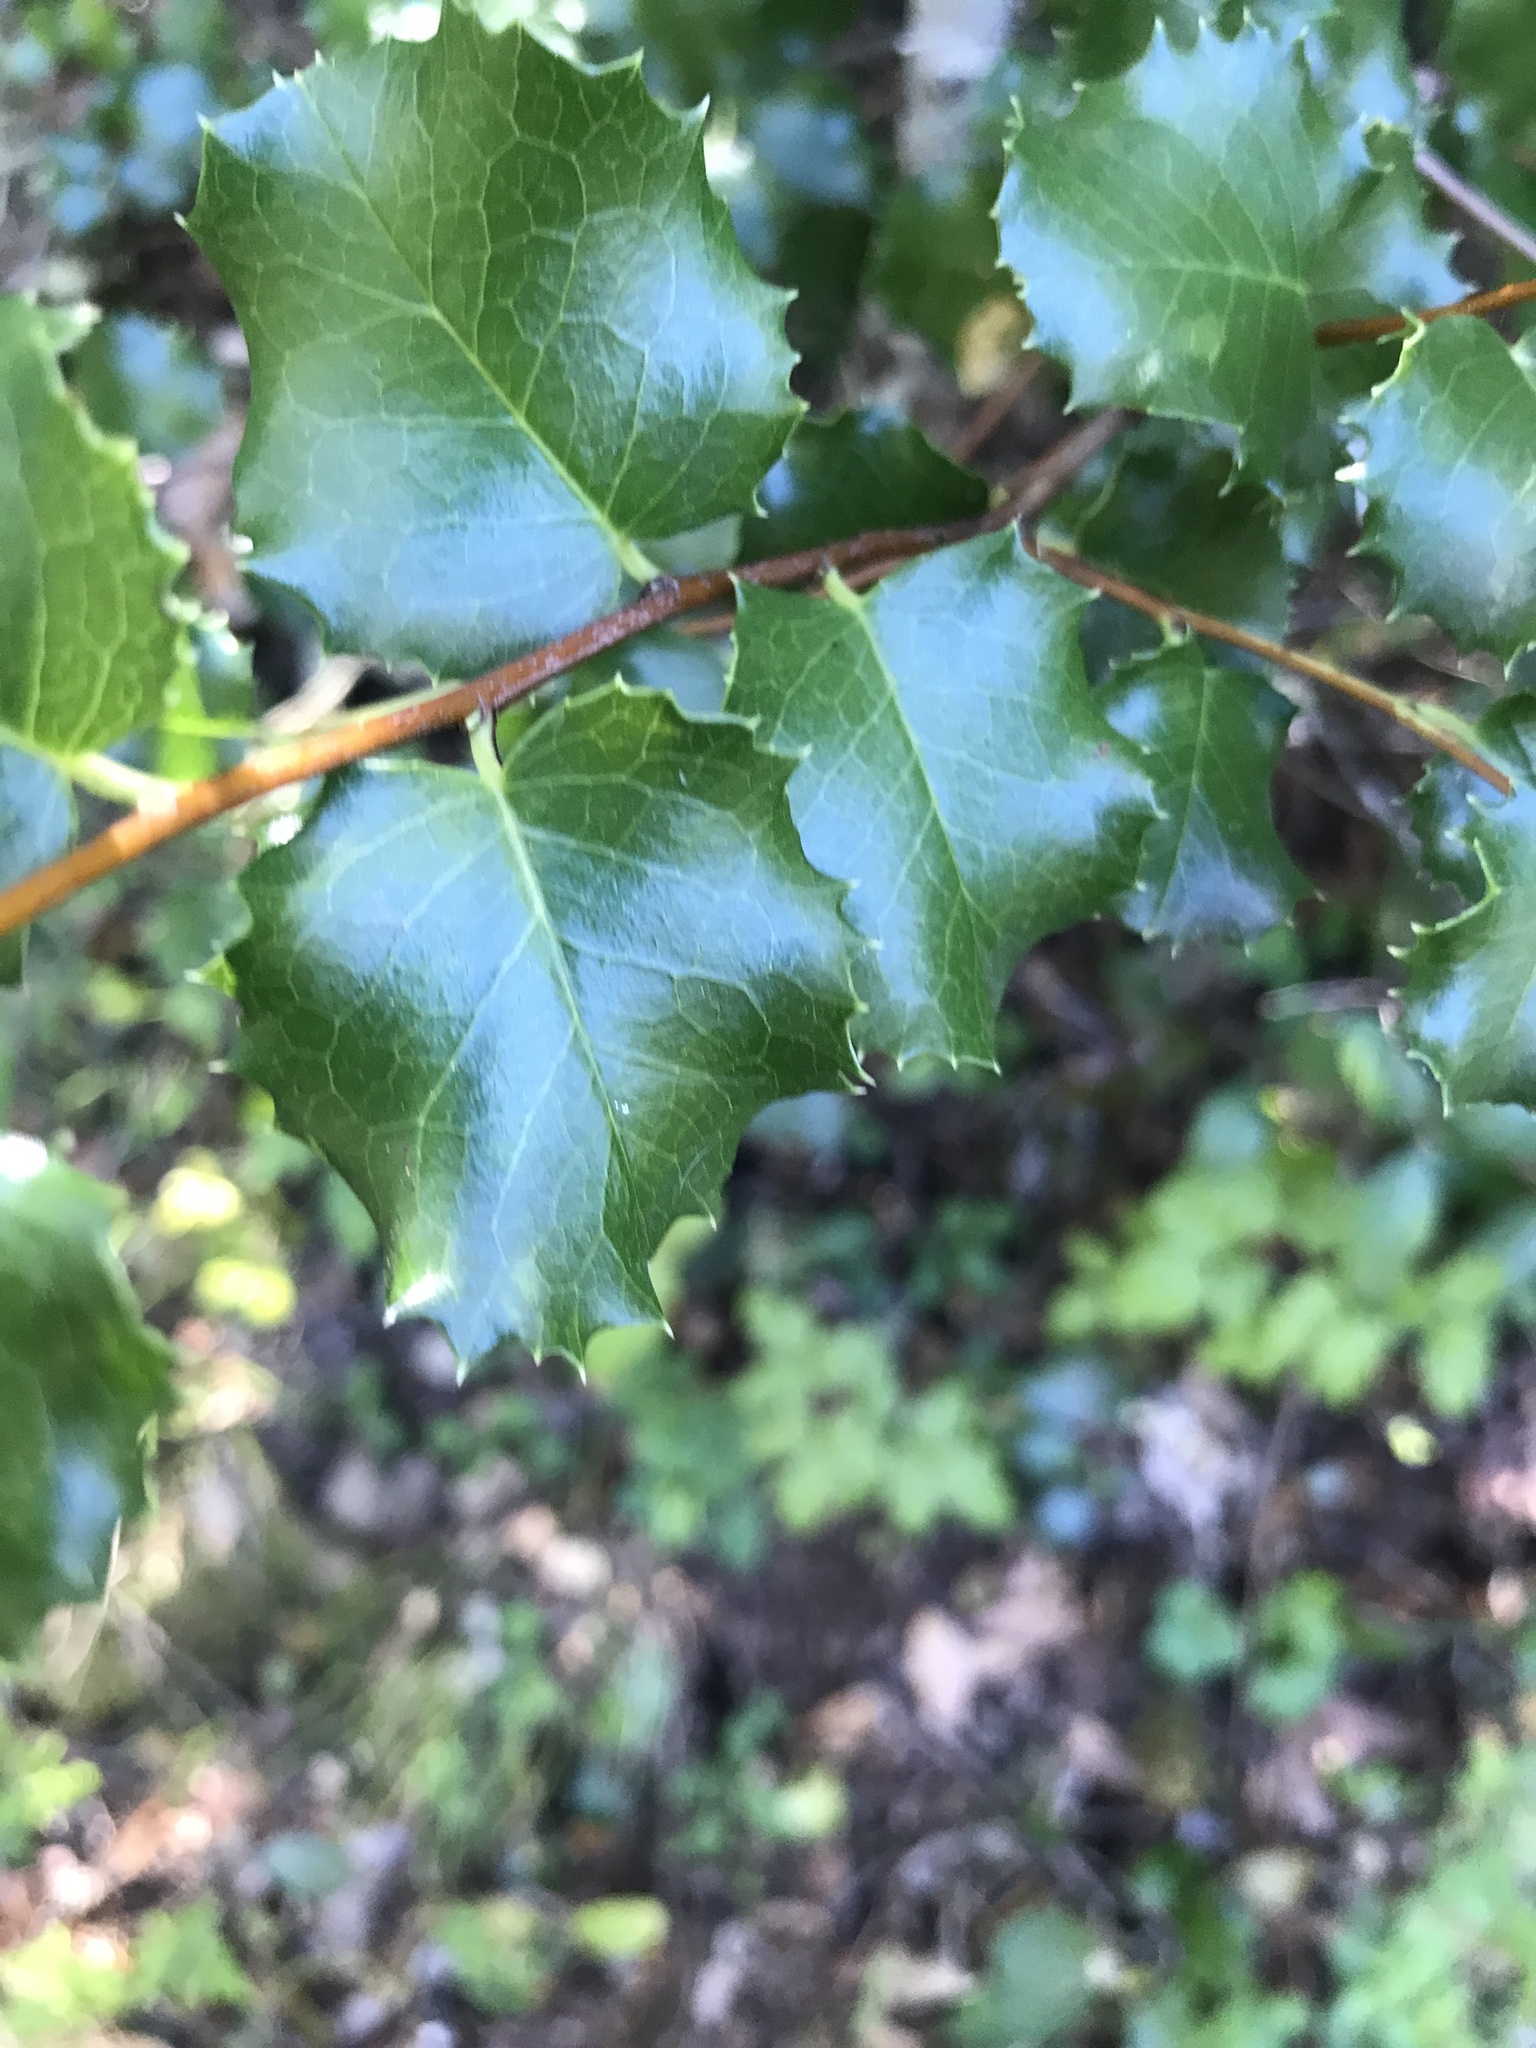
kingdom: Plantae
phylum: Tracheophyta
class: Magnoliopsida
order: Rosales
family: Rosaceae
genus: Prunus
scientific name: Prunus ilicifolia
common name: Hollyleaf cherry
